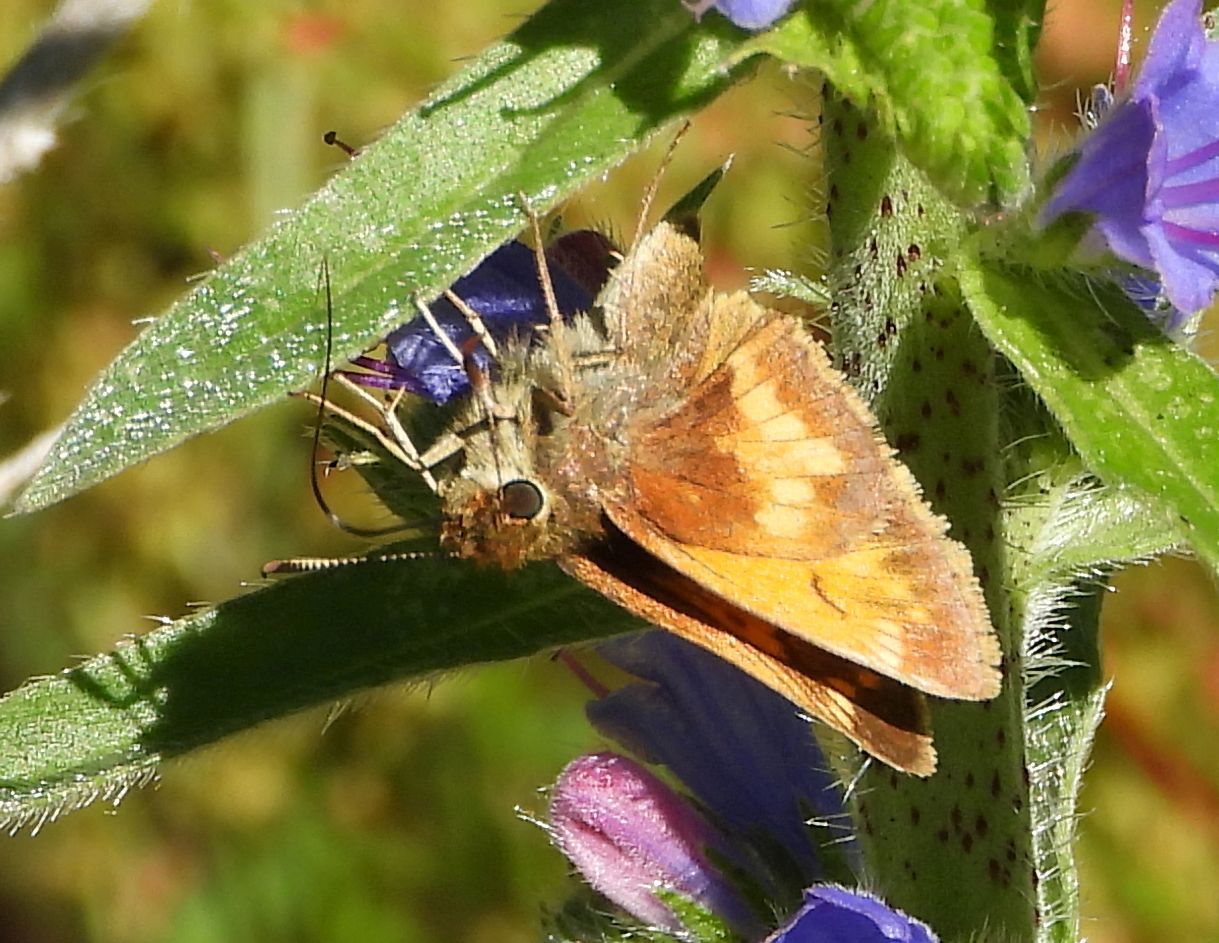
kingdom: Animalia
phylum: Arthropoda
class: Insecta
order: Lepidoptera
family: Hesperiidae
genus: Lon
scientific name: Lon hobomok
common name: Hobomok skipper
